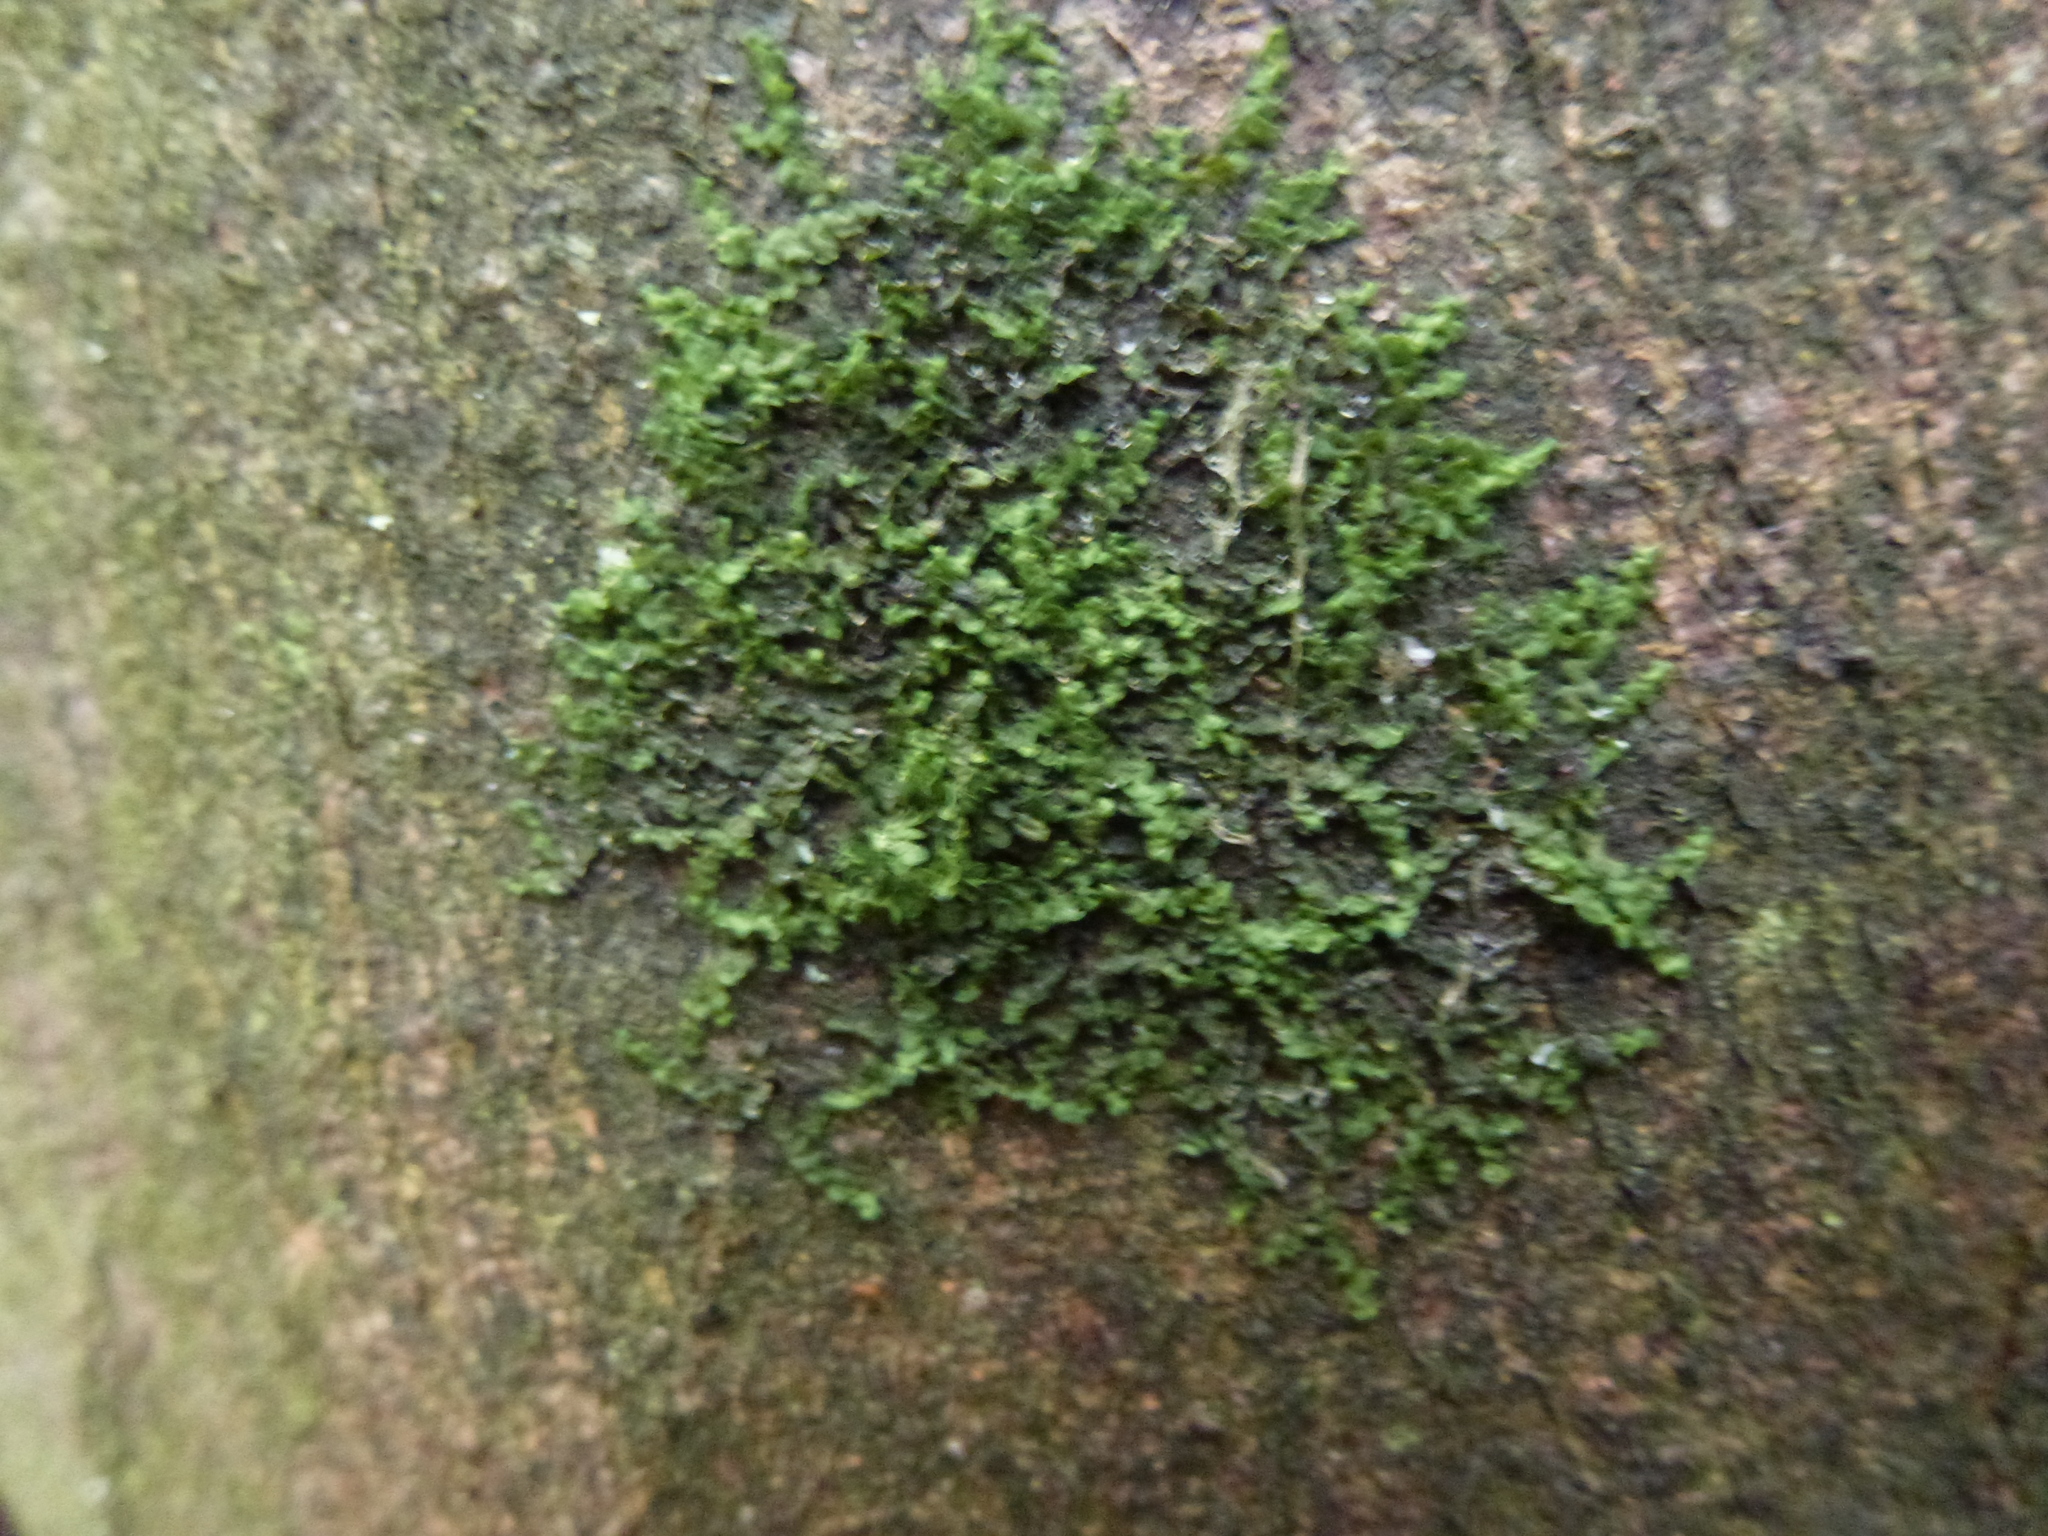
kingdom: Plantae
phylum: Marchantiophyta
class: Jungermanniopsida
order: Porellales
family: Frullaniaceae
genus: Frullania
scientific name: Frullania dilatata
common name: Dilated scalewort
